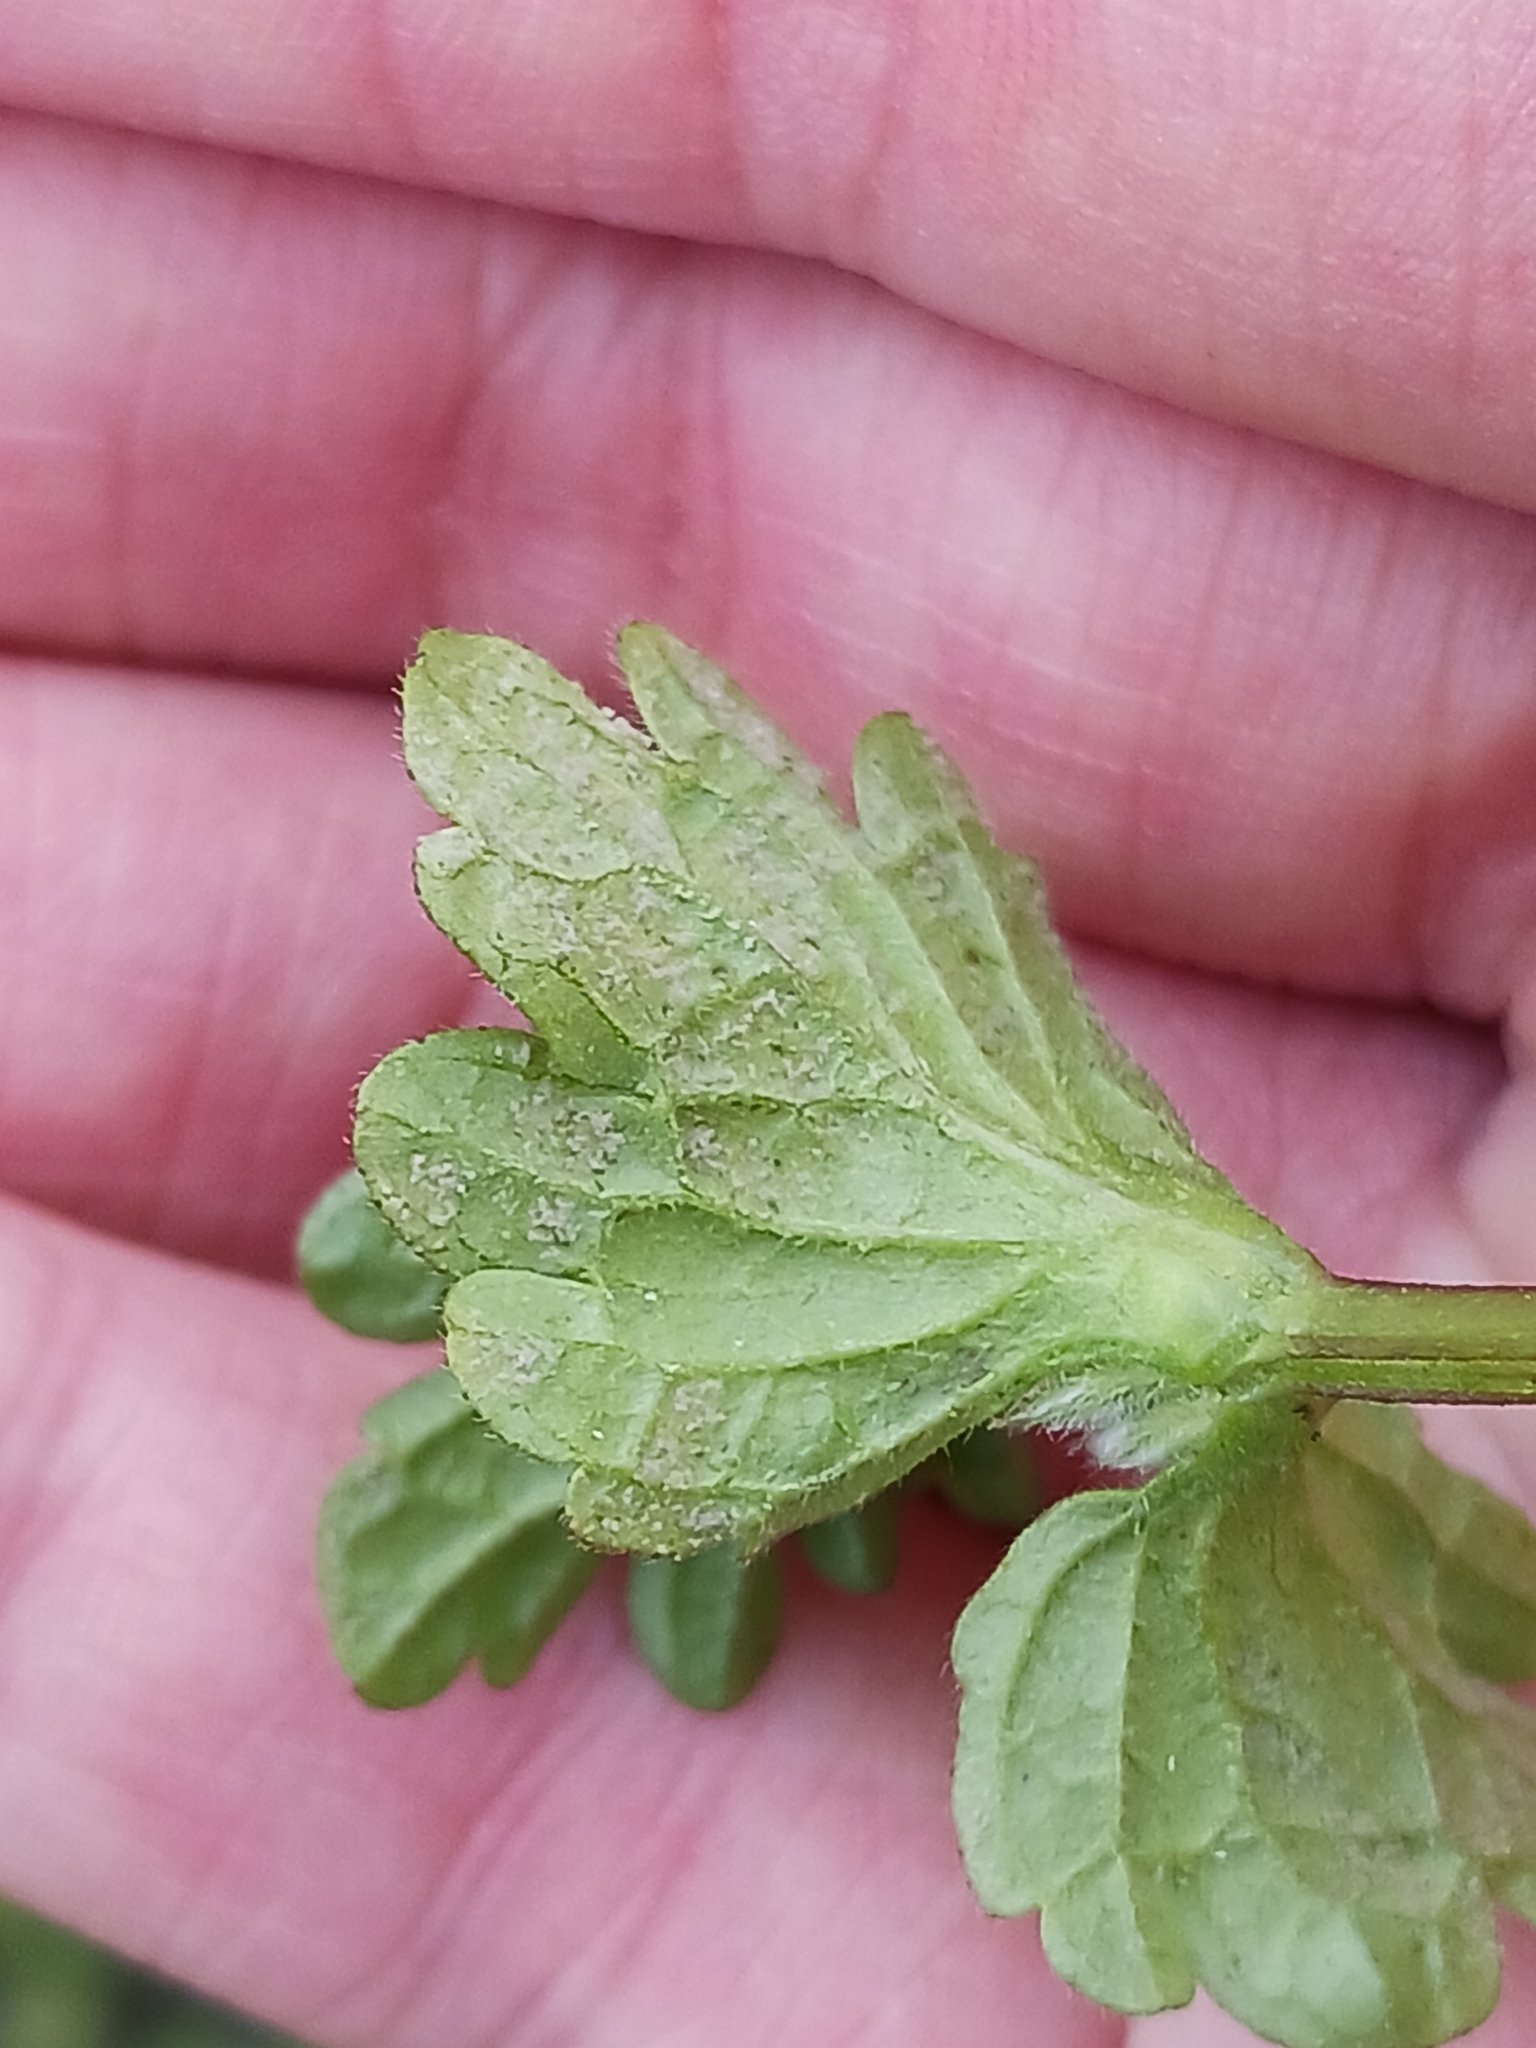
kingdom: Chromista
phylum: Oomycota
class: Peronosporea
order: Peronosporales
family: Peronosporaceae
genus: Peronospora
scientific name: Peronospora lamii
